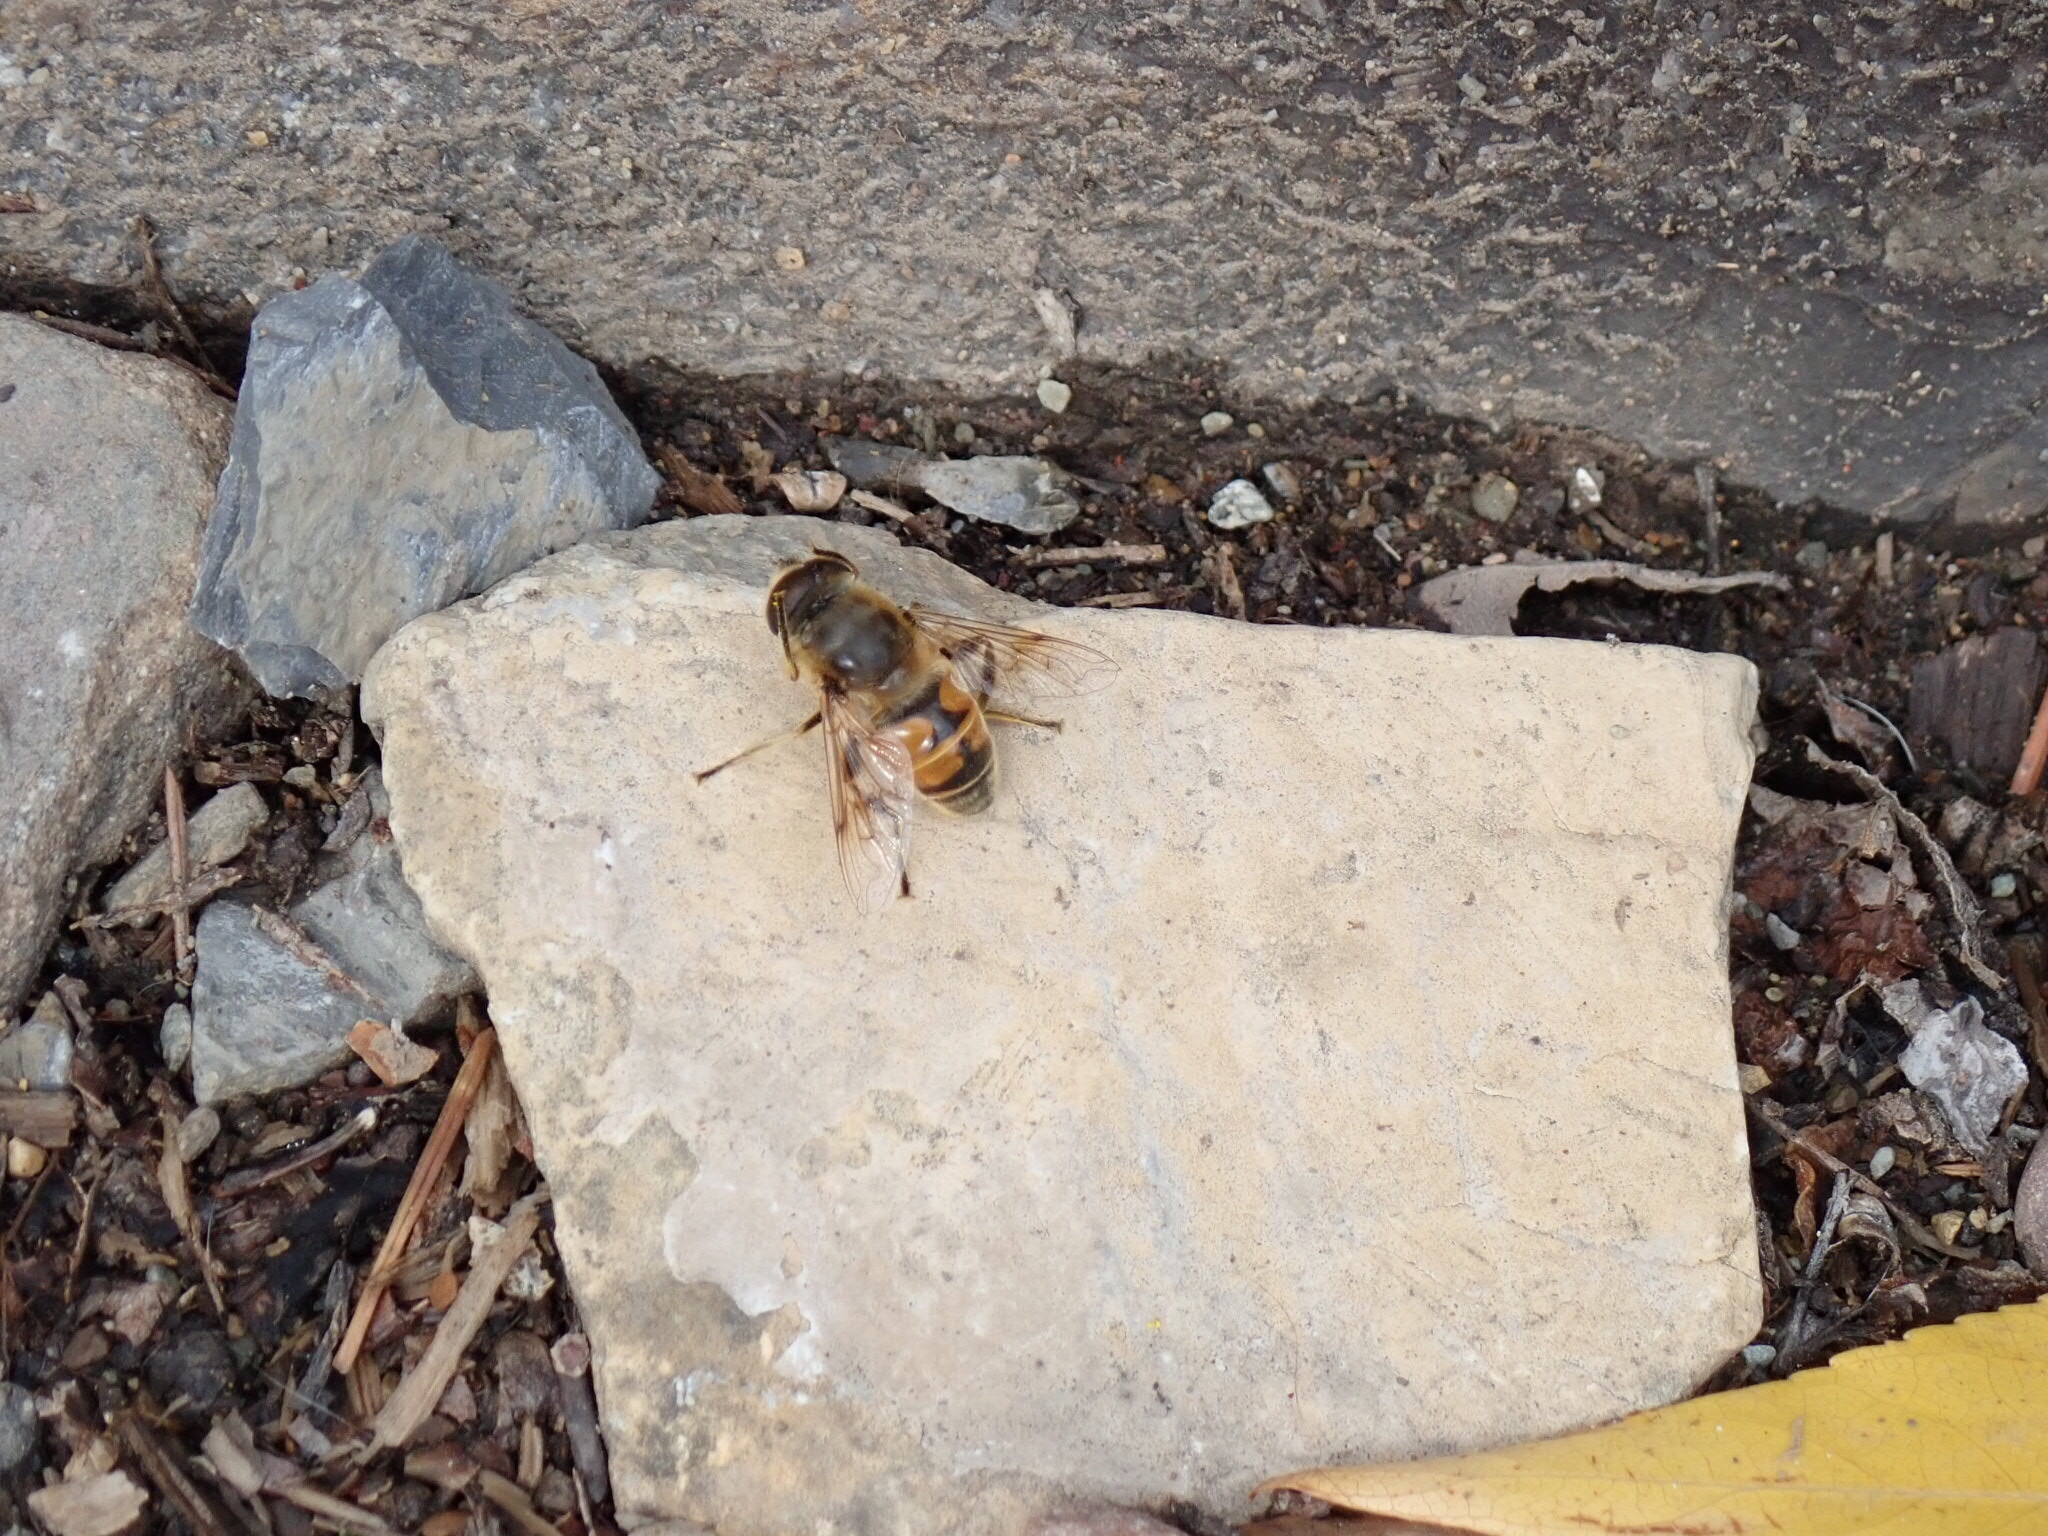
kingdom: Animalia
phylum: Arthropoda
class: Insecta
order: Diptera
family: Syrphidae
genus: Eristalis
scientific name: Eristalis tenax
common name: Drone fly
